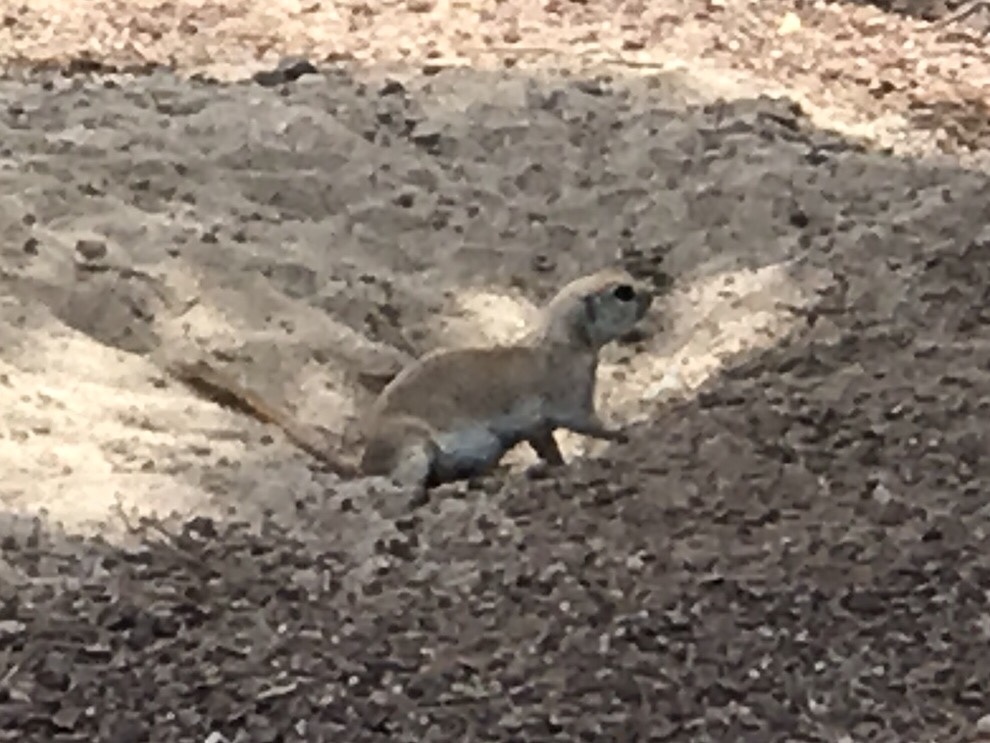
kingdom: Animalia
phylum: Chordata
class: Mammalia
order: Rodentia
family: Sciuridae
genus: Xerospermophilus
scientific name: Xerospermophilus tereticaudus
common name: Round-tailed ground squirrel
